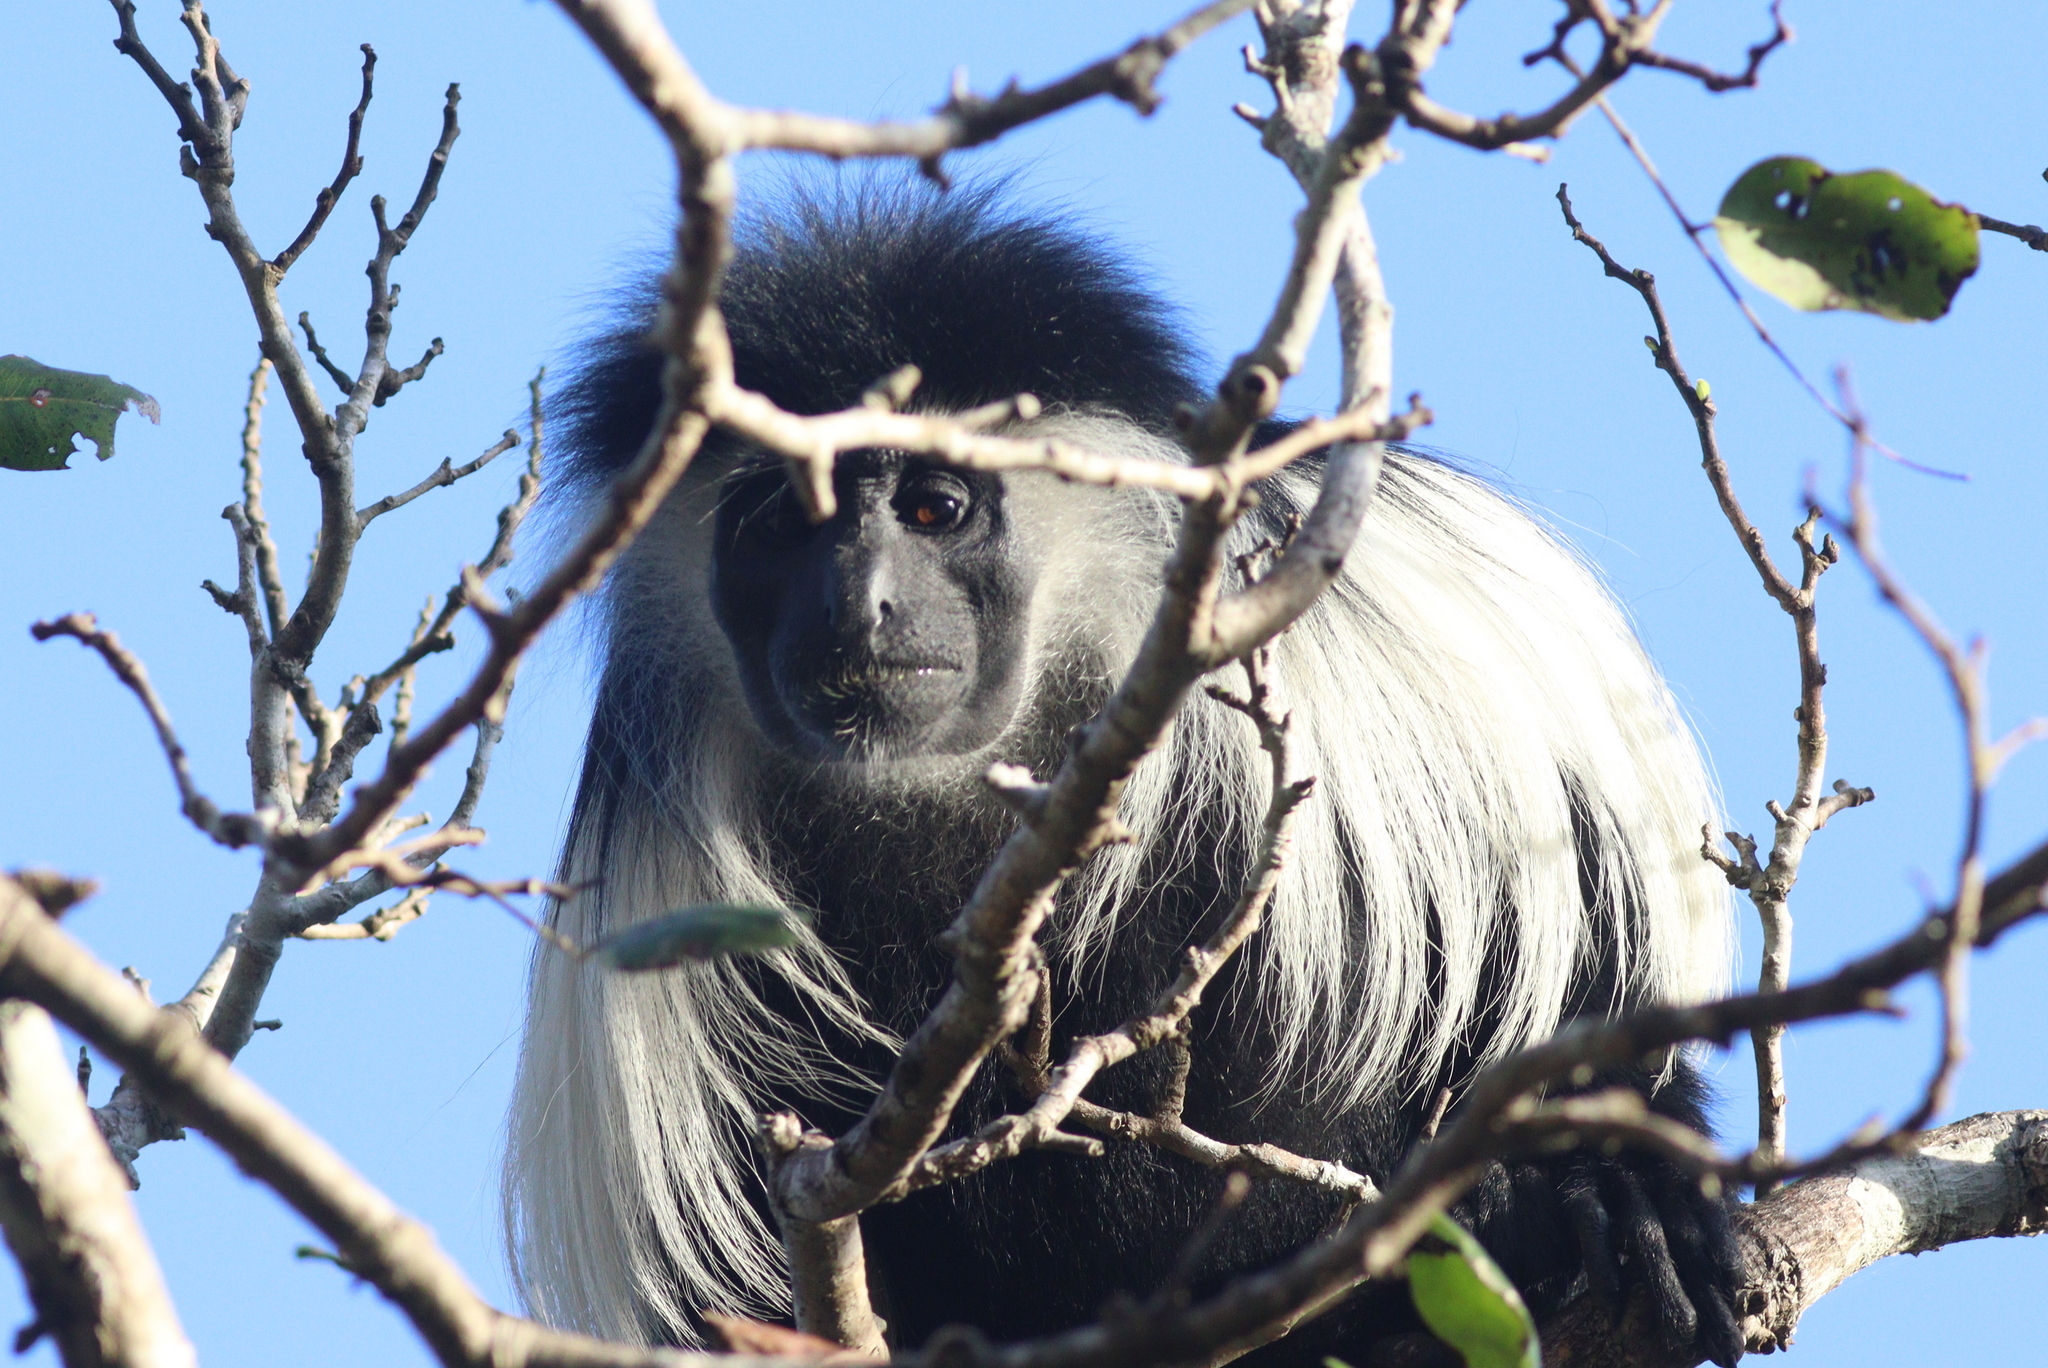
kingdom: Animalia
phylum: Chordata
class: Mammalia
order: Primates
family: Cercopithecidae
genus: Colobus
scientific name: Colobus angolensis
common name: Angola colobus
